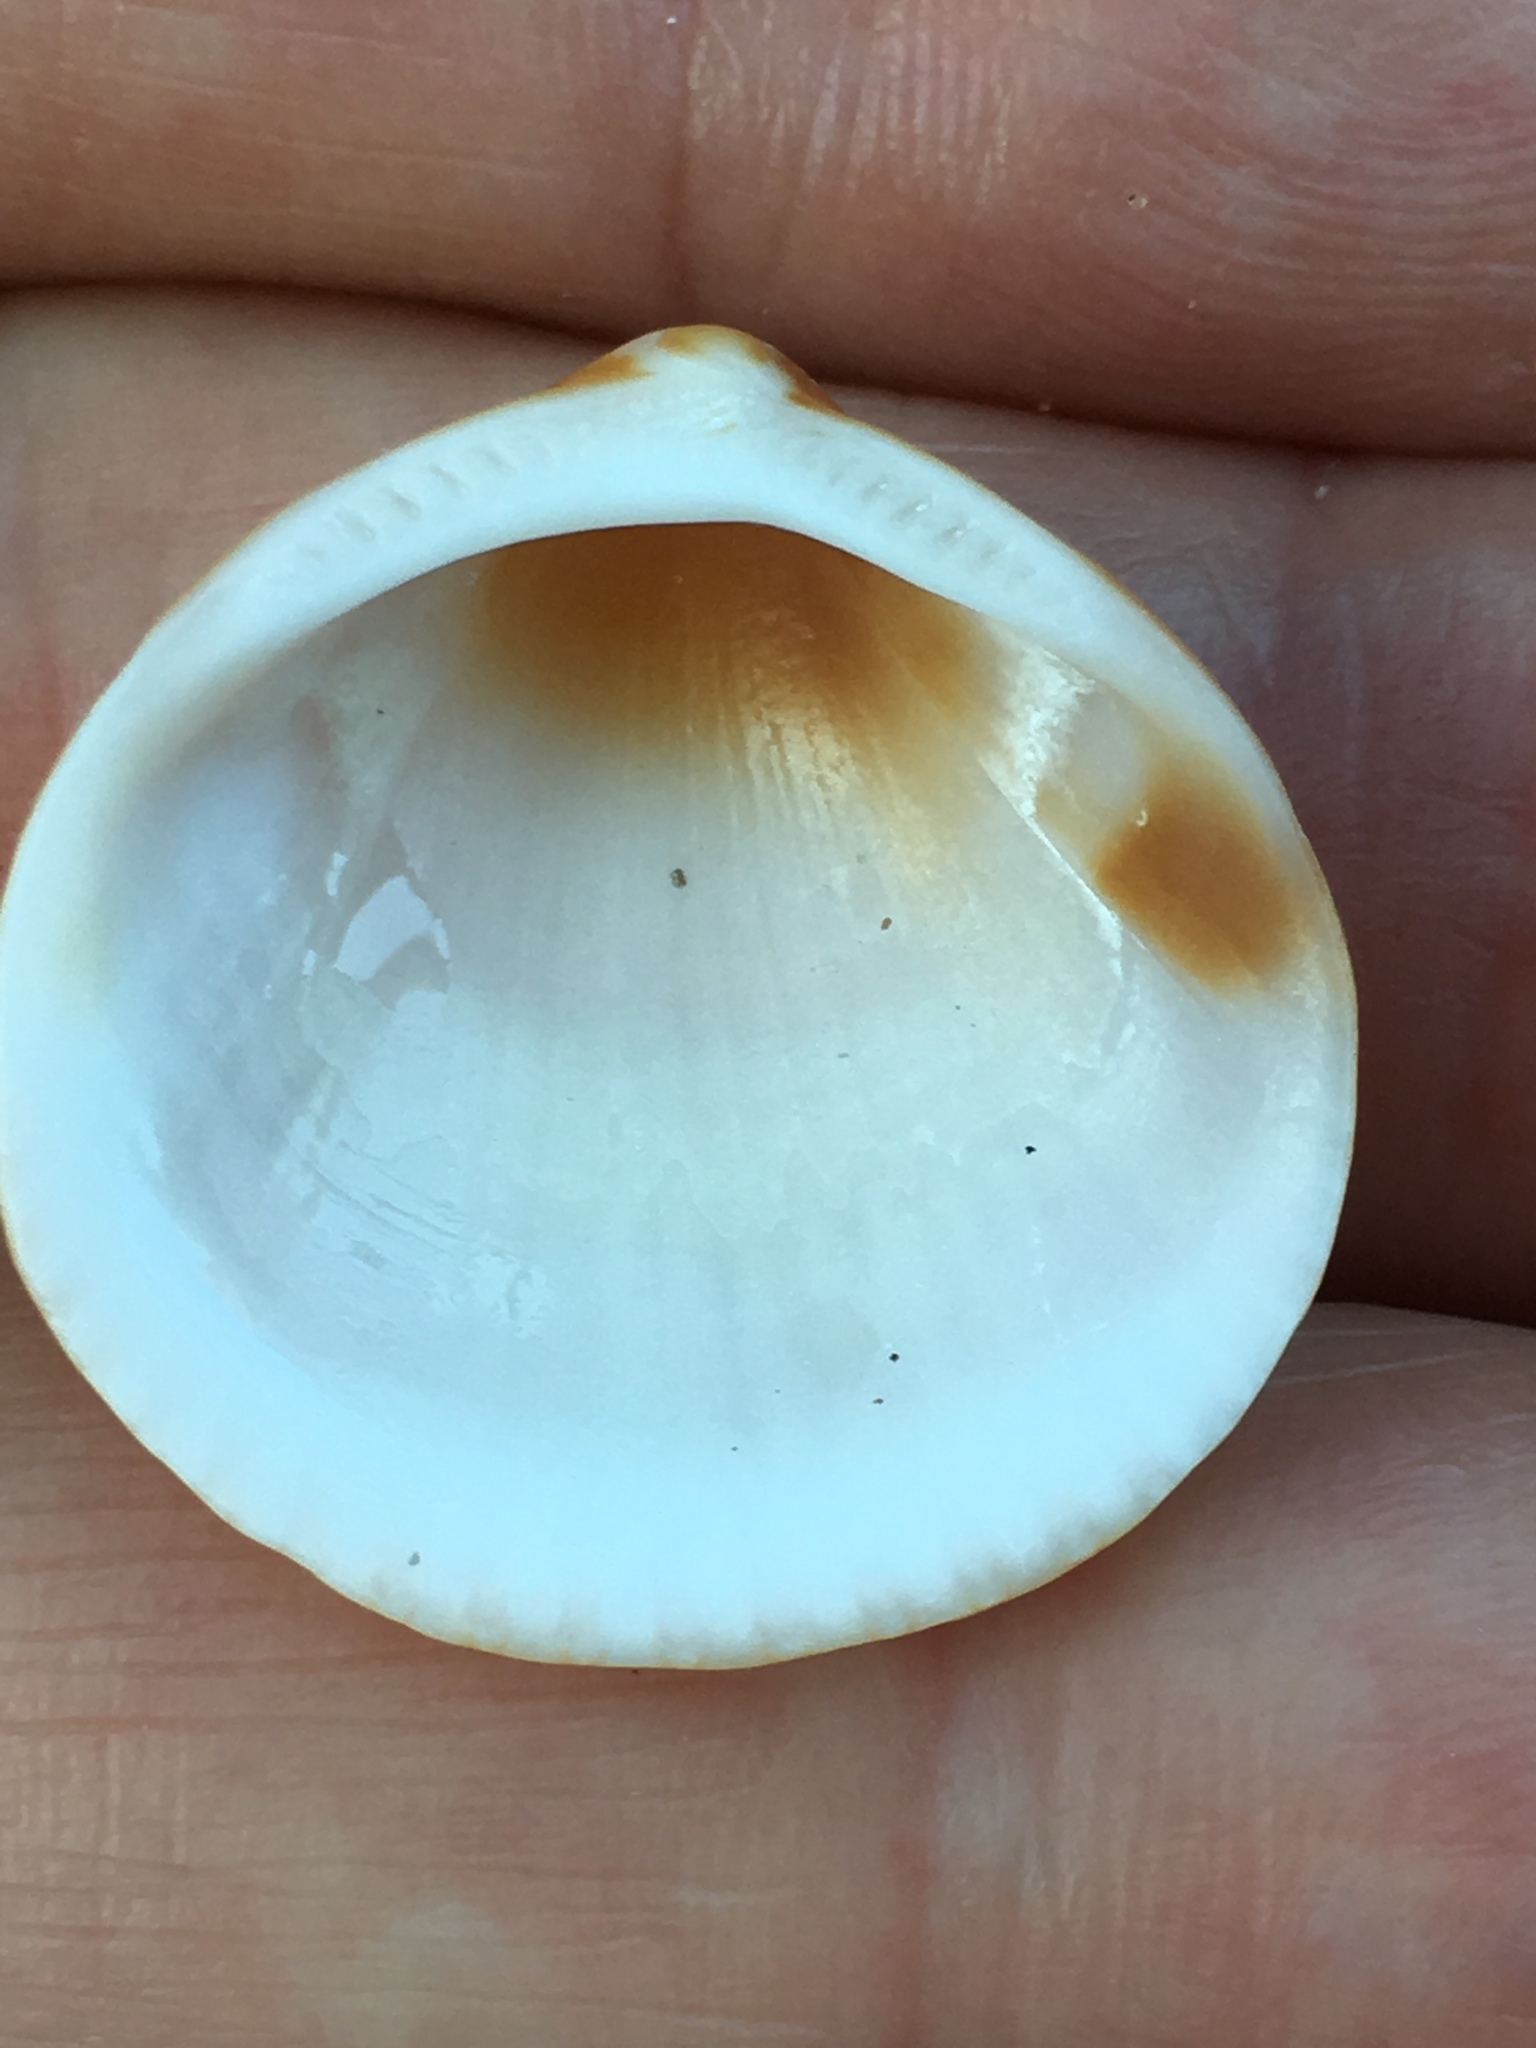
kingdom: Animalia
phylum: Mollusca
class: Bivalvia
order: Arcida
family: Glycymerididae
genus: Glycymeris
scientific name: Glycymeris spectralis
